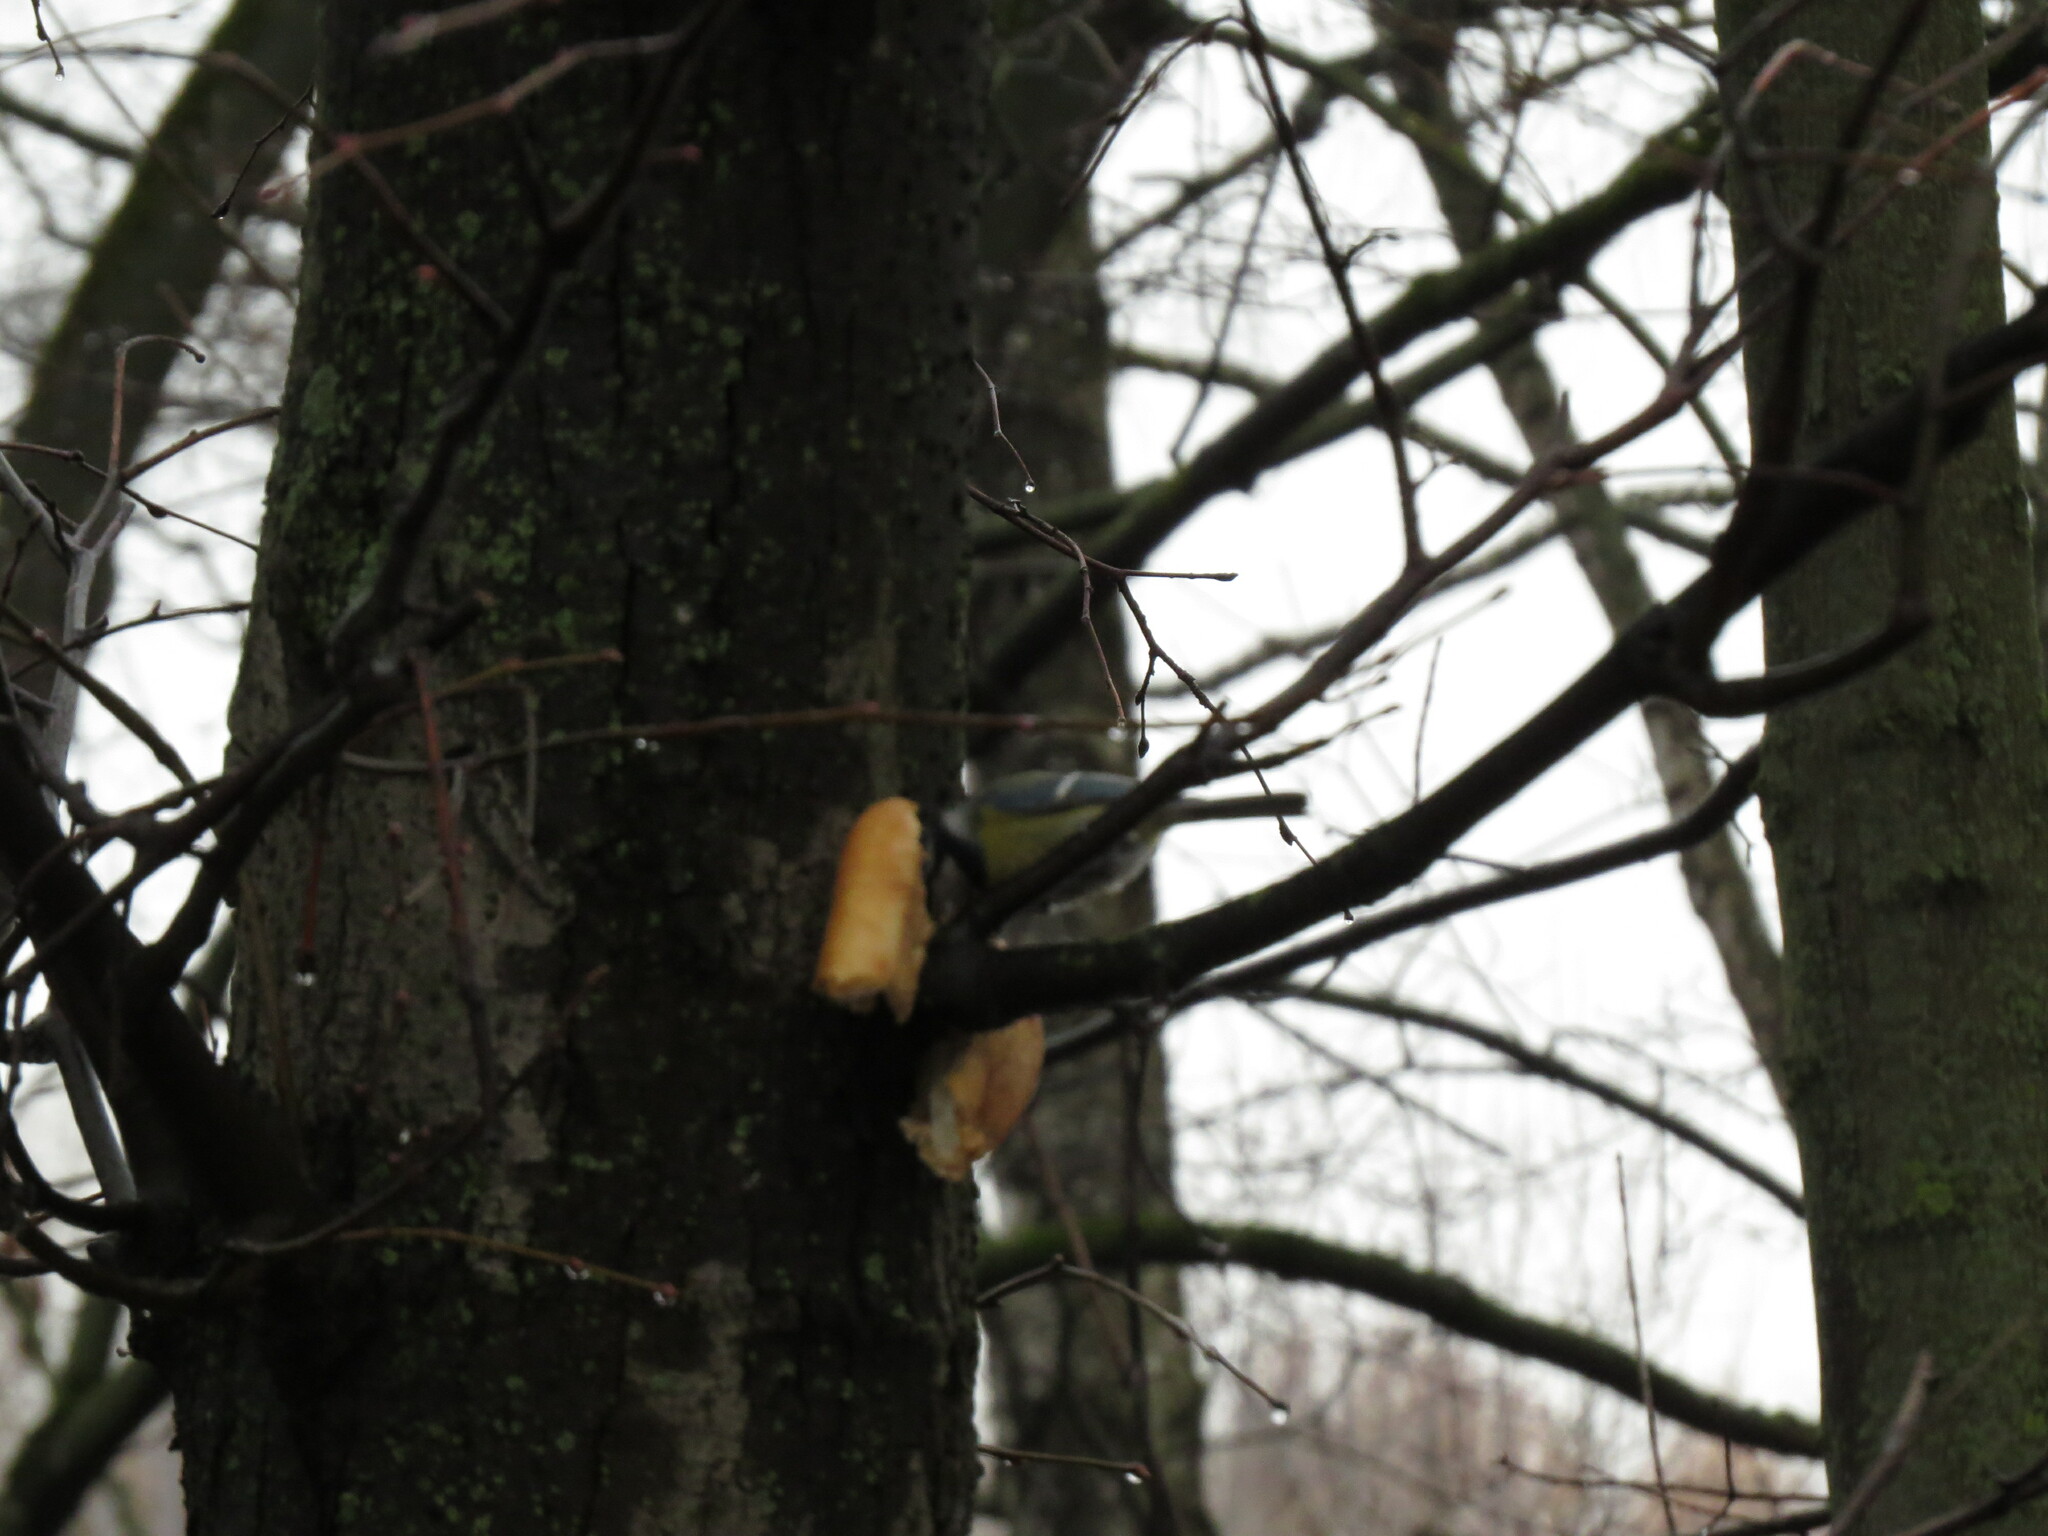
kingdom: Animalia
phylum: Chordata
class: Aves
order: Passeriformes
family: Paridae
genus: Cyanistes
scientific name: Cyanistes caeruleus
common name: Eurasian blue tit
